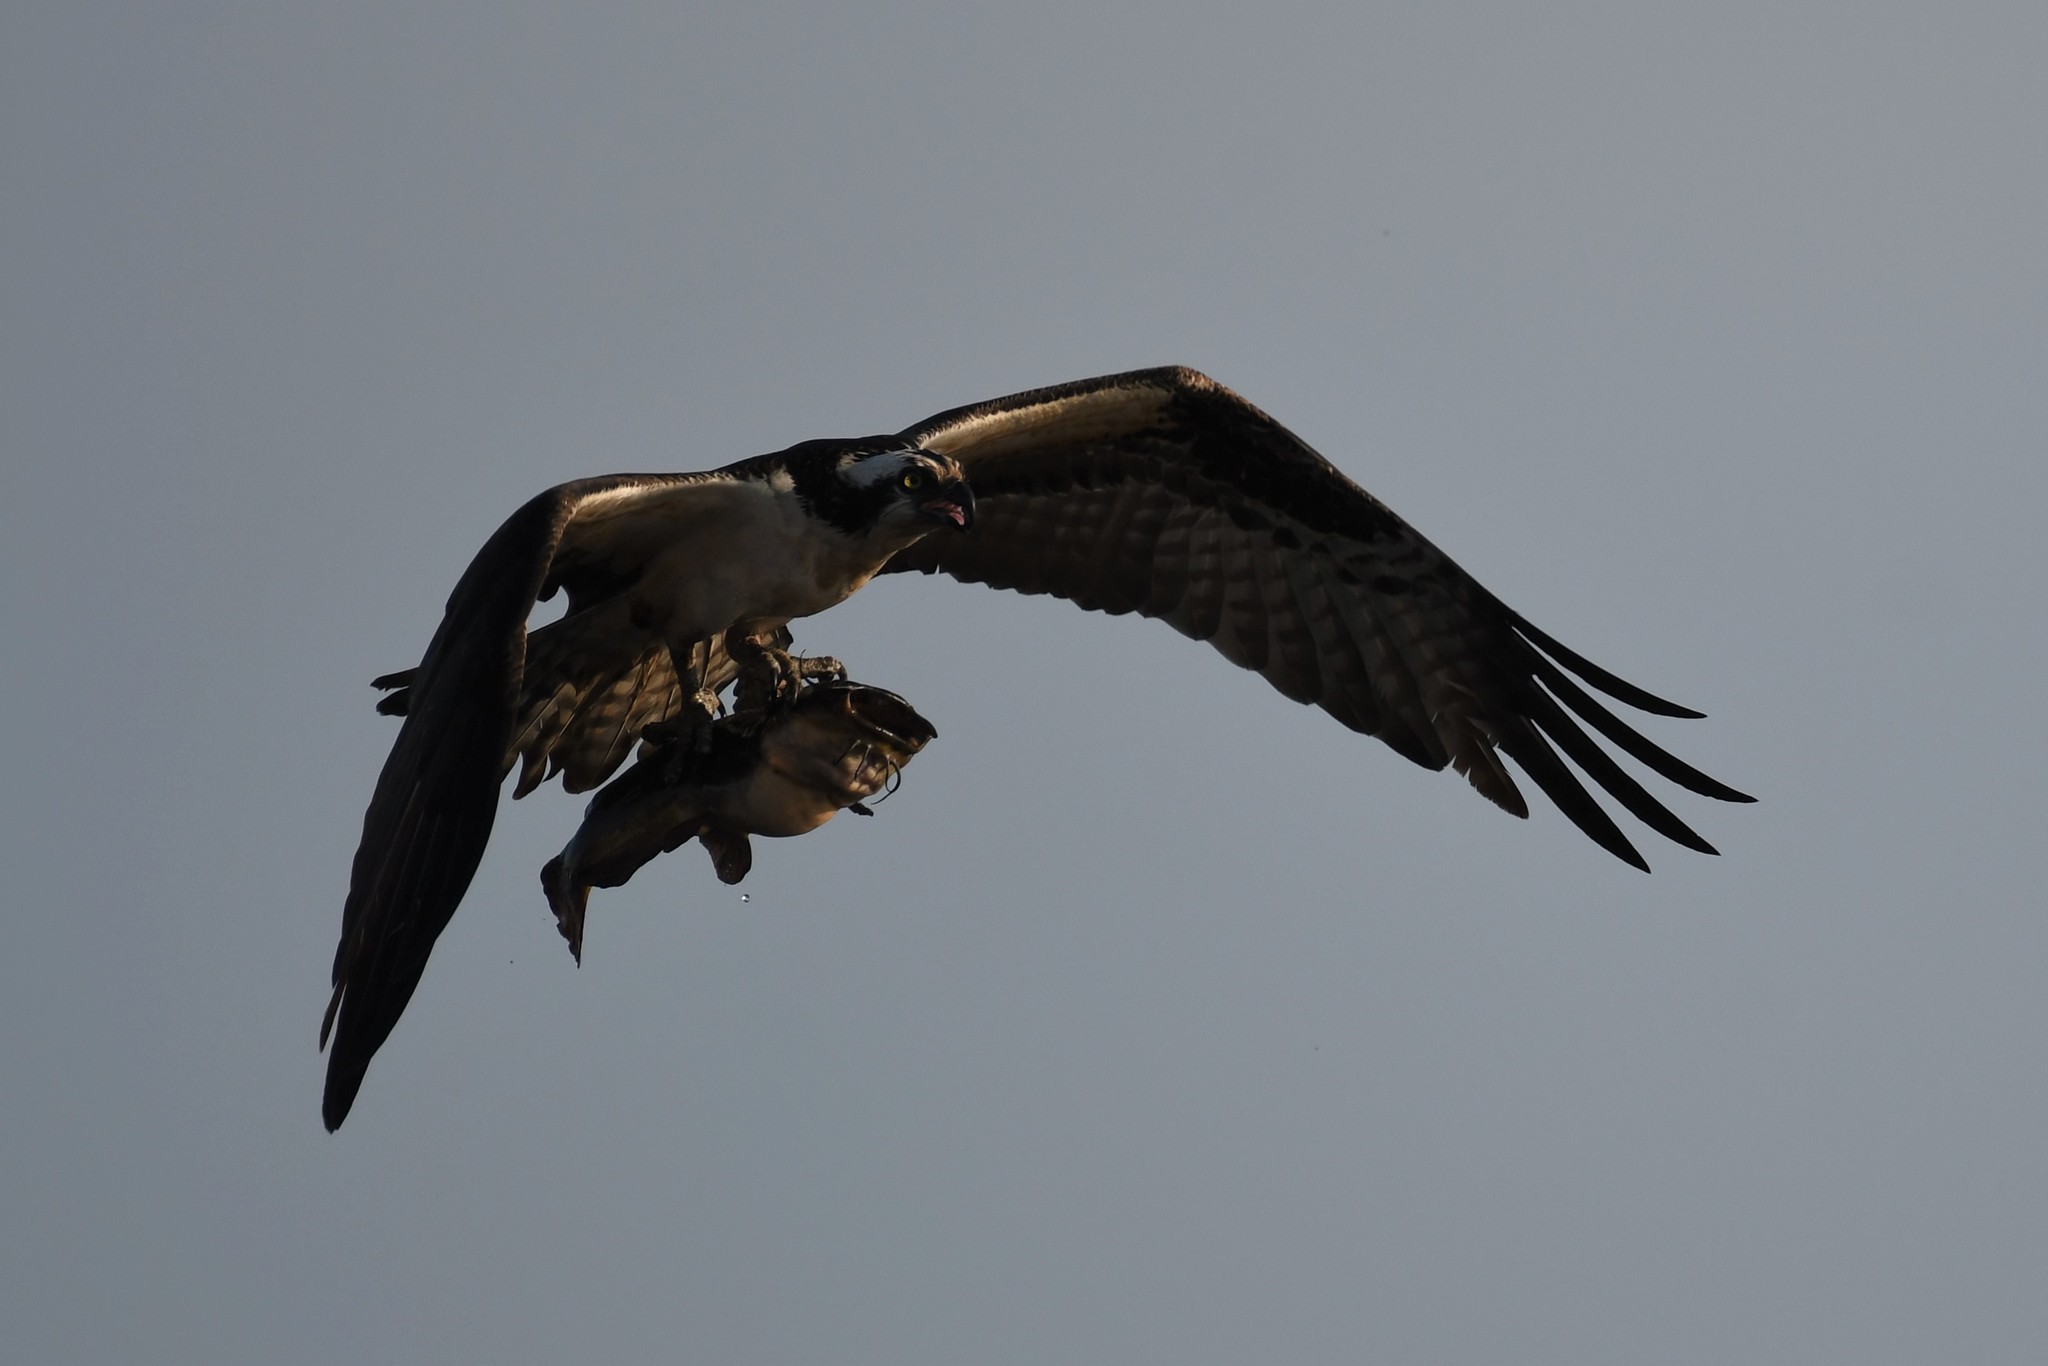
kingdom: Animalia
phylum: Chordata
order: Siluriformes
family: Ictaluridae
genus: Ameiurus
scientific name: Ameiurus nebulosus
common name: Brown bullhead
